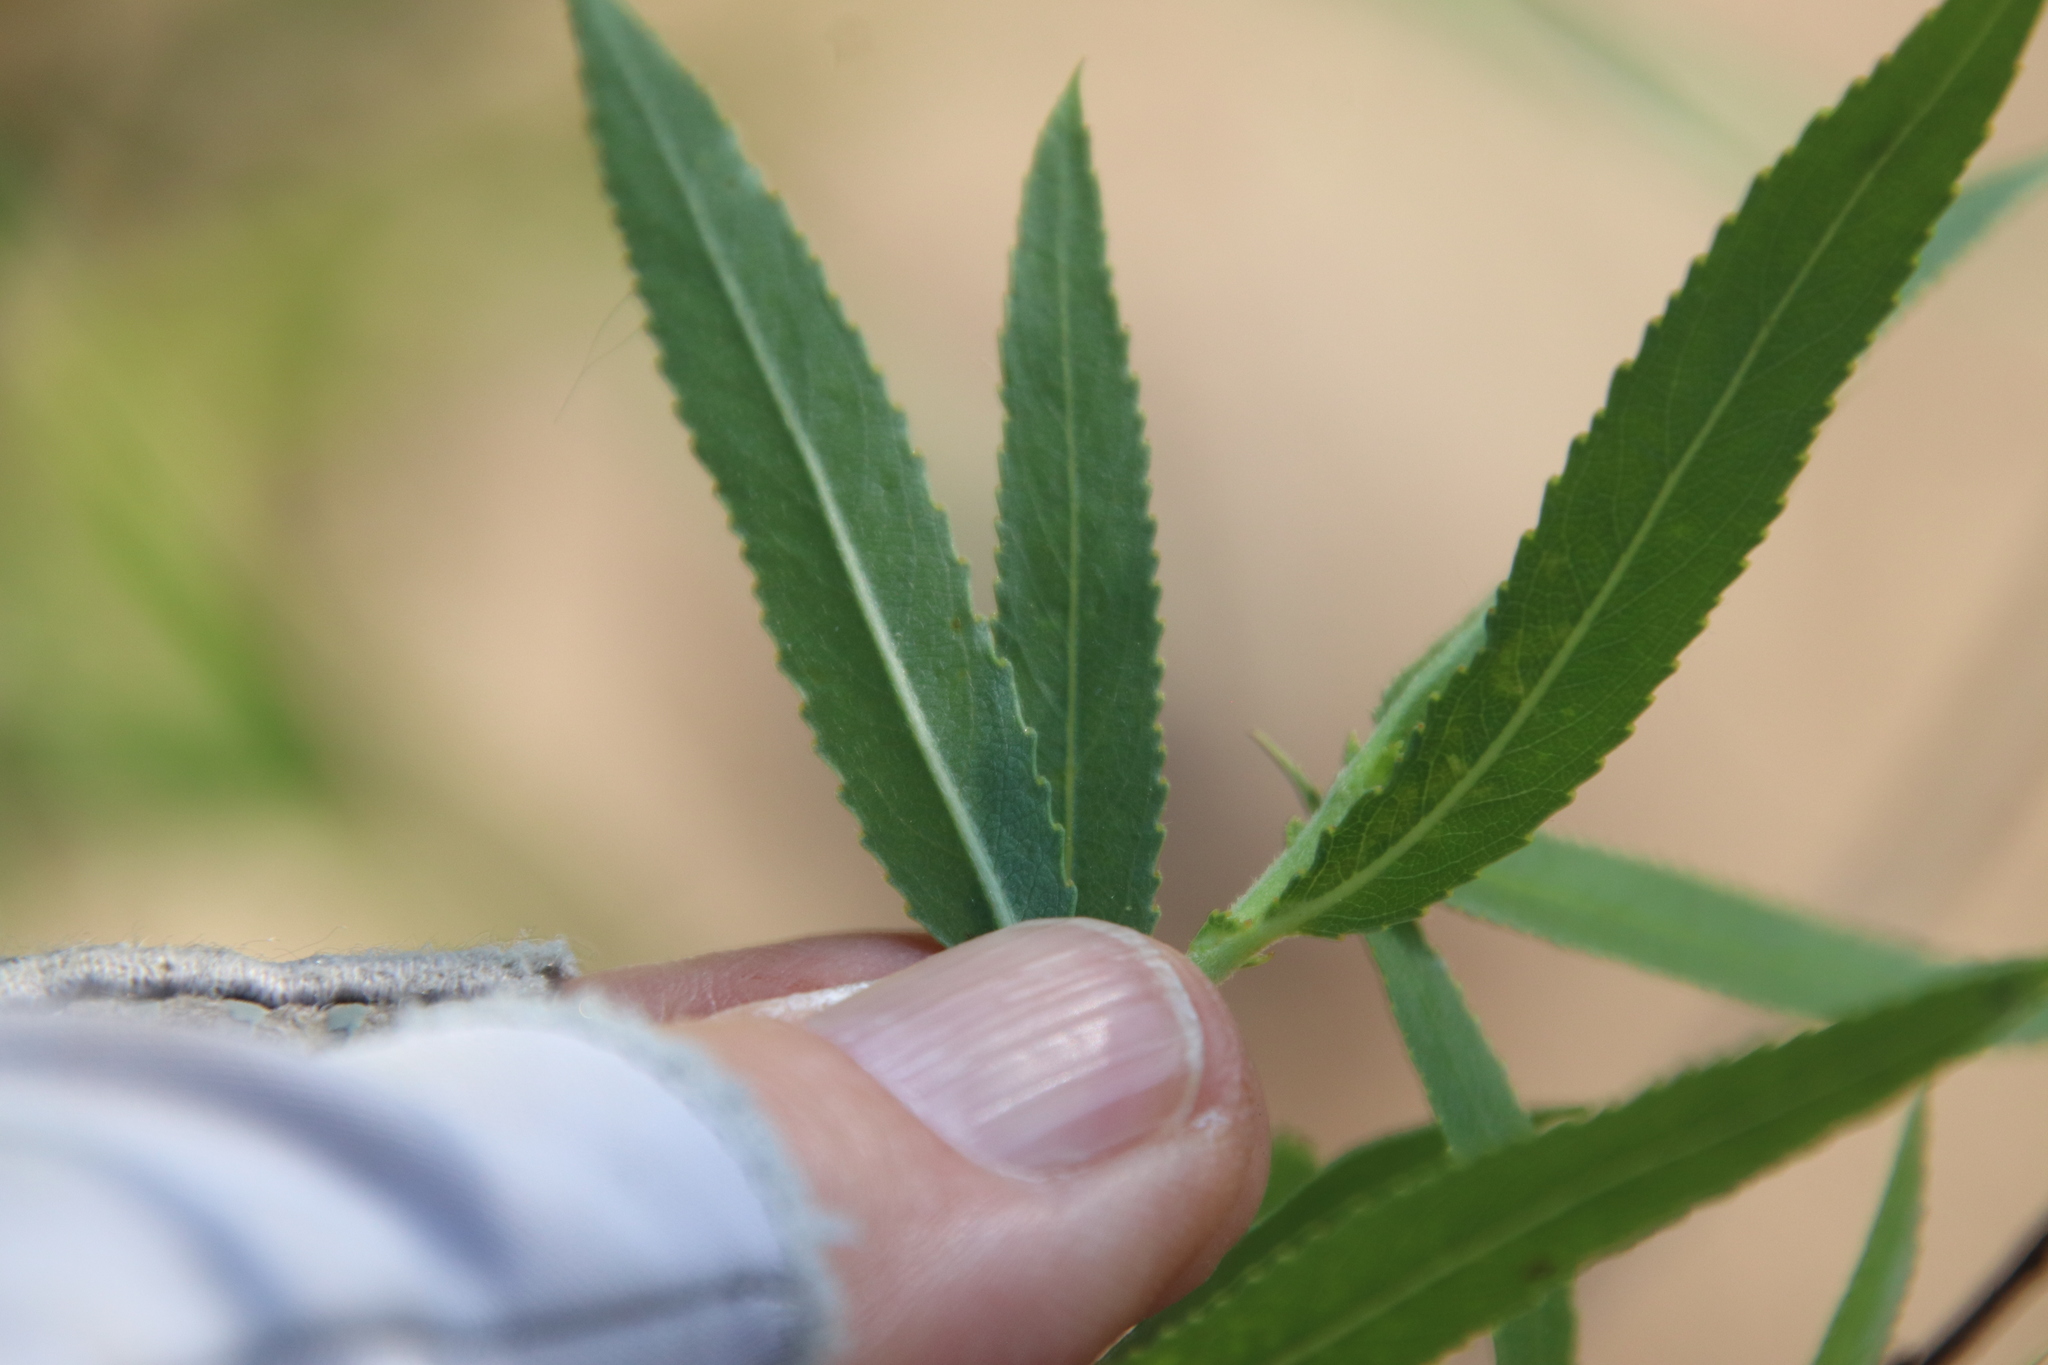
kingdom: Plantae
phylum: Tracheophyta
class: Magnoliopsida
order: Malpighiales
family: Salicaceae
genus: Salix
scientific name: Salix gooddingii
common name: Goodding's willow
